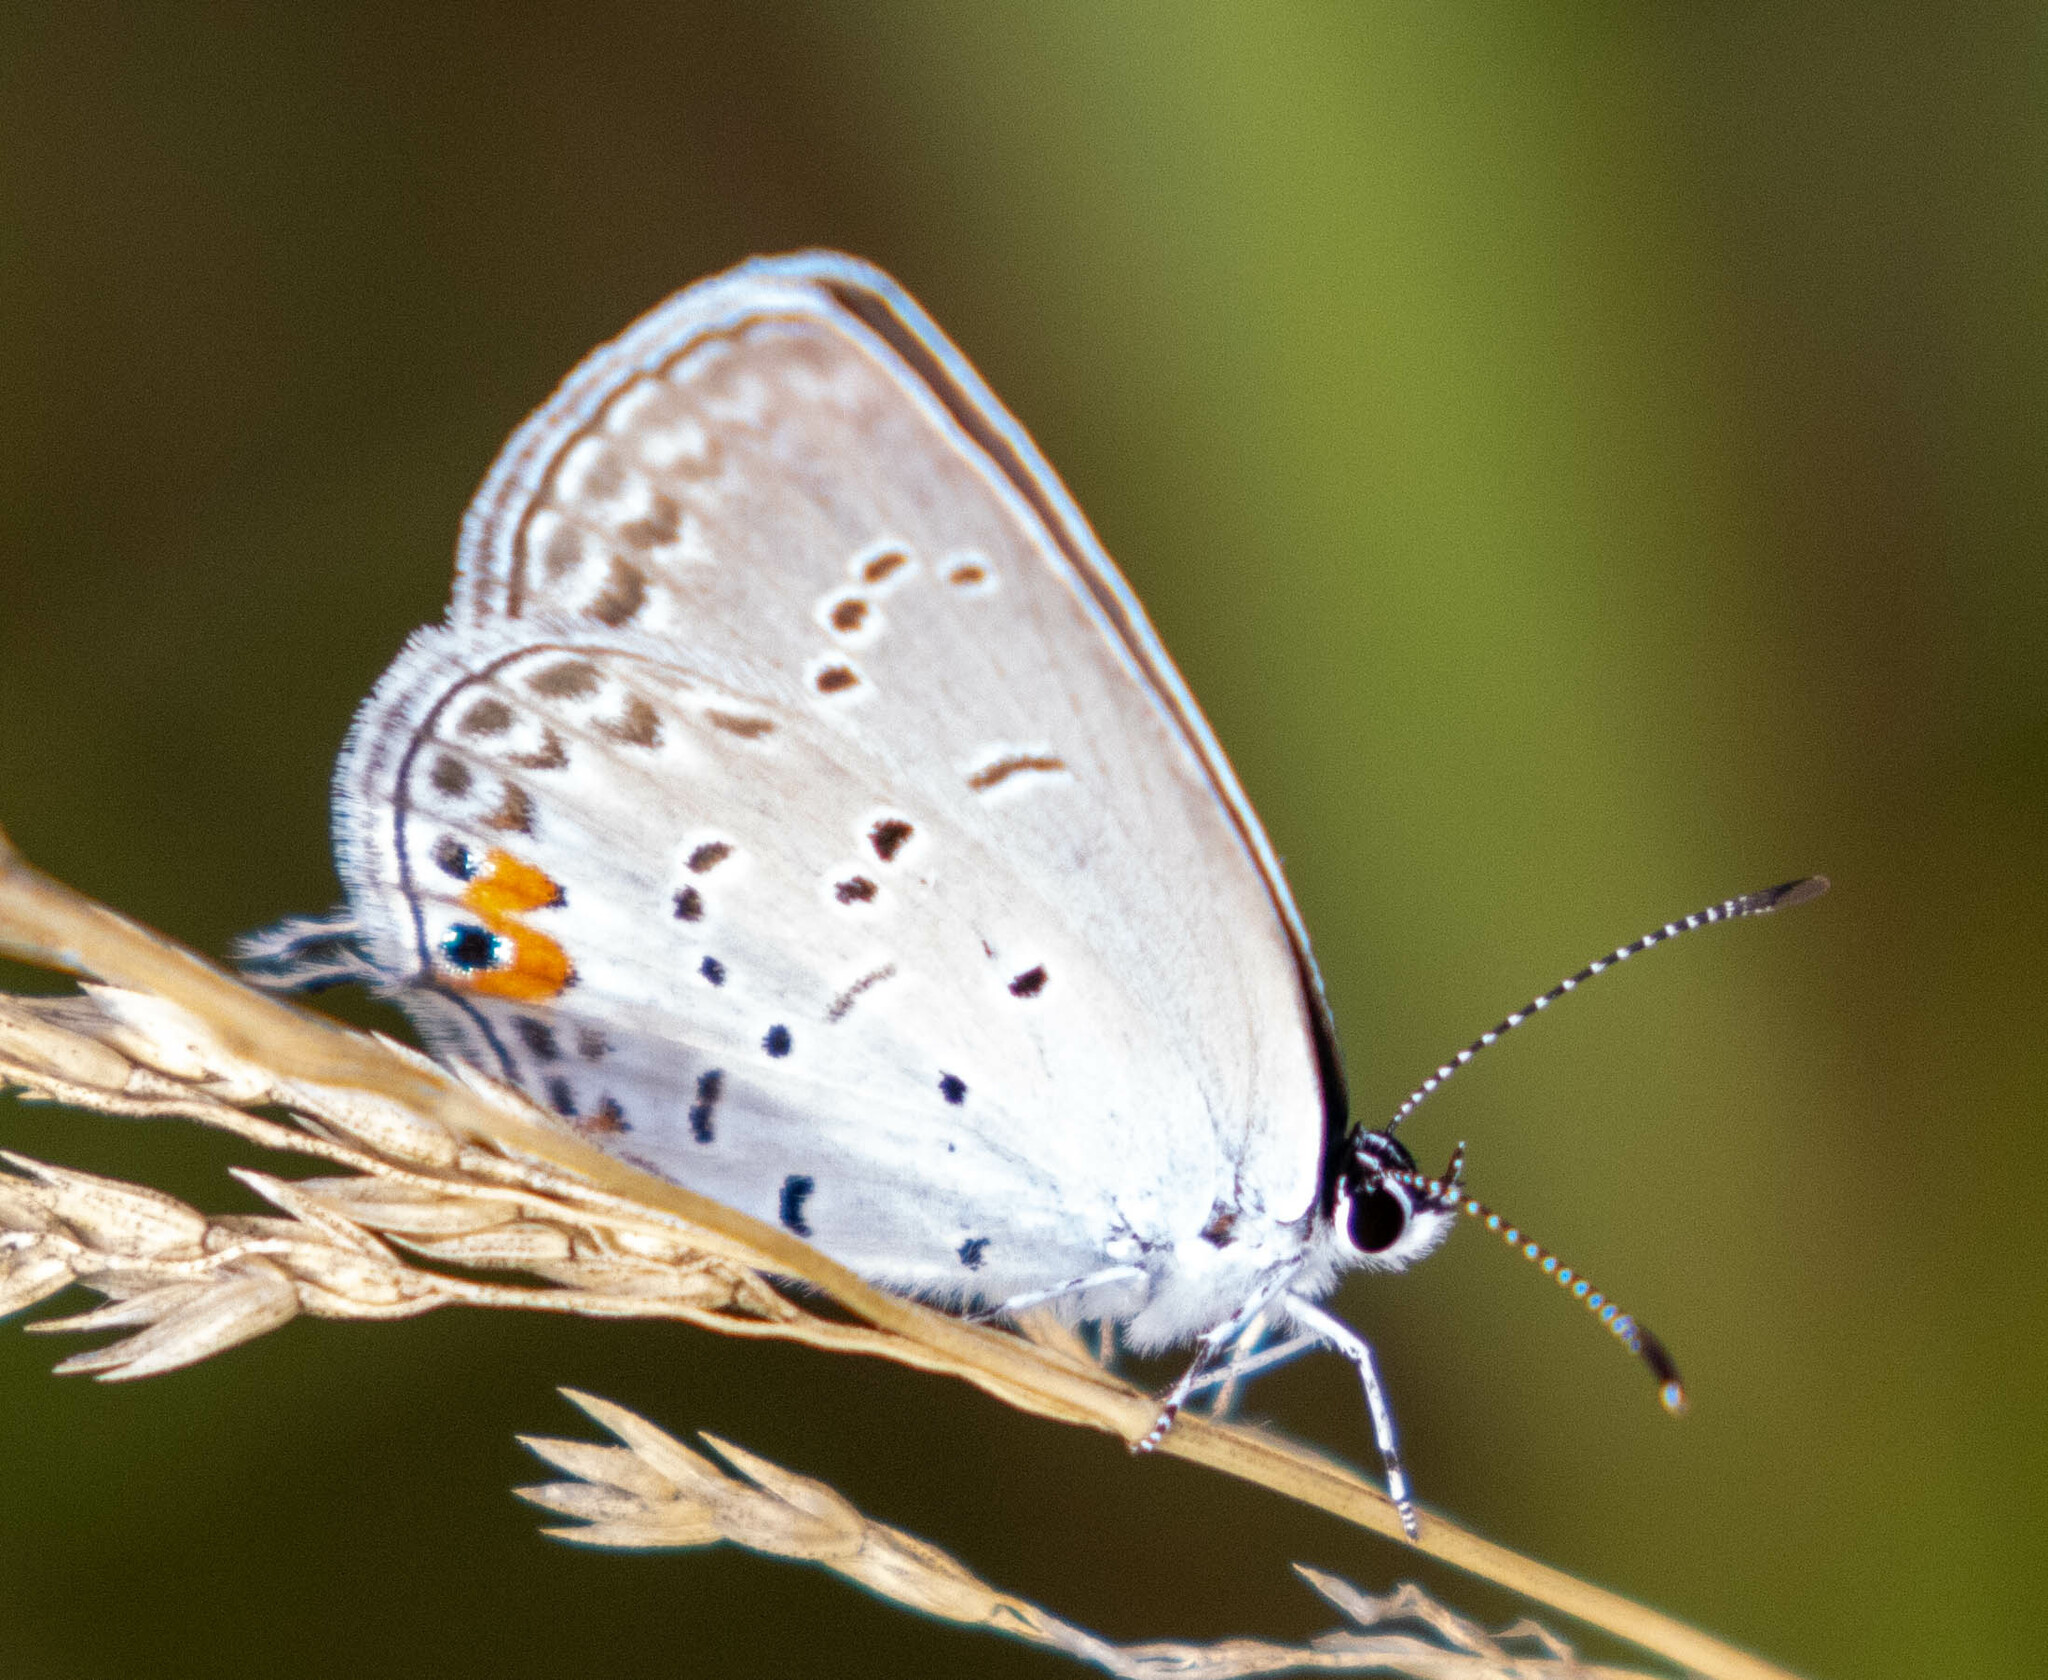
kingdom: Animalia
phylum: Arthropoda
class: Insecta
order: Lepidoptera
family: Lycaenidae
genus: Elkalyce
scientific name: Elkalyce comyntas
